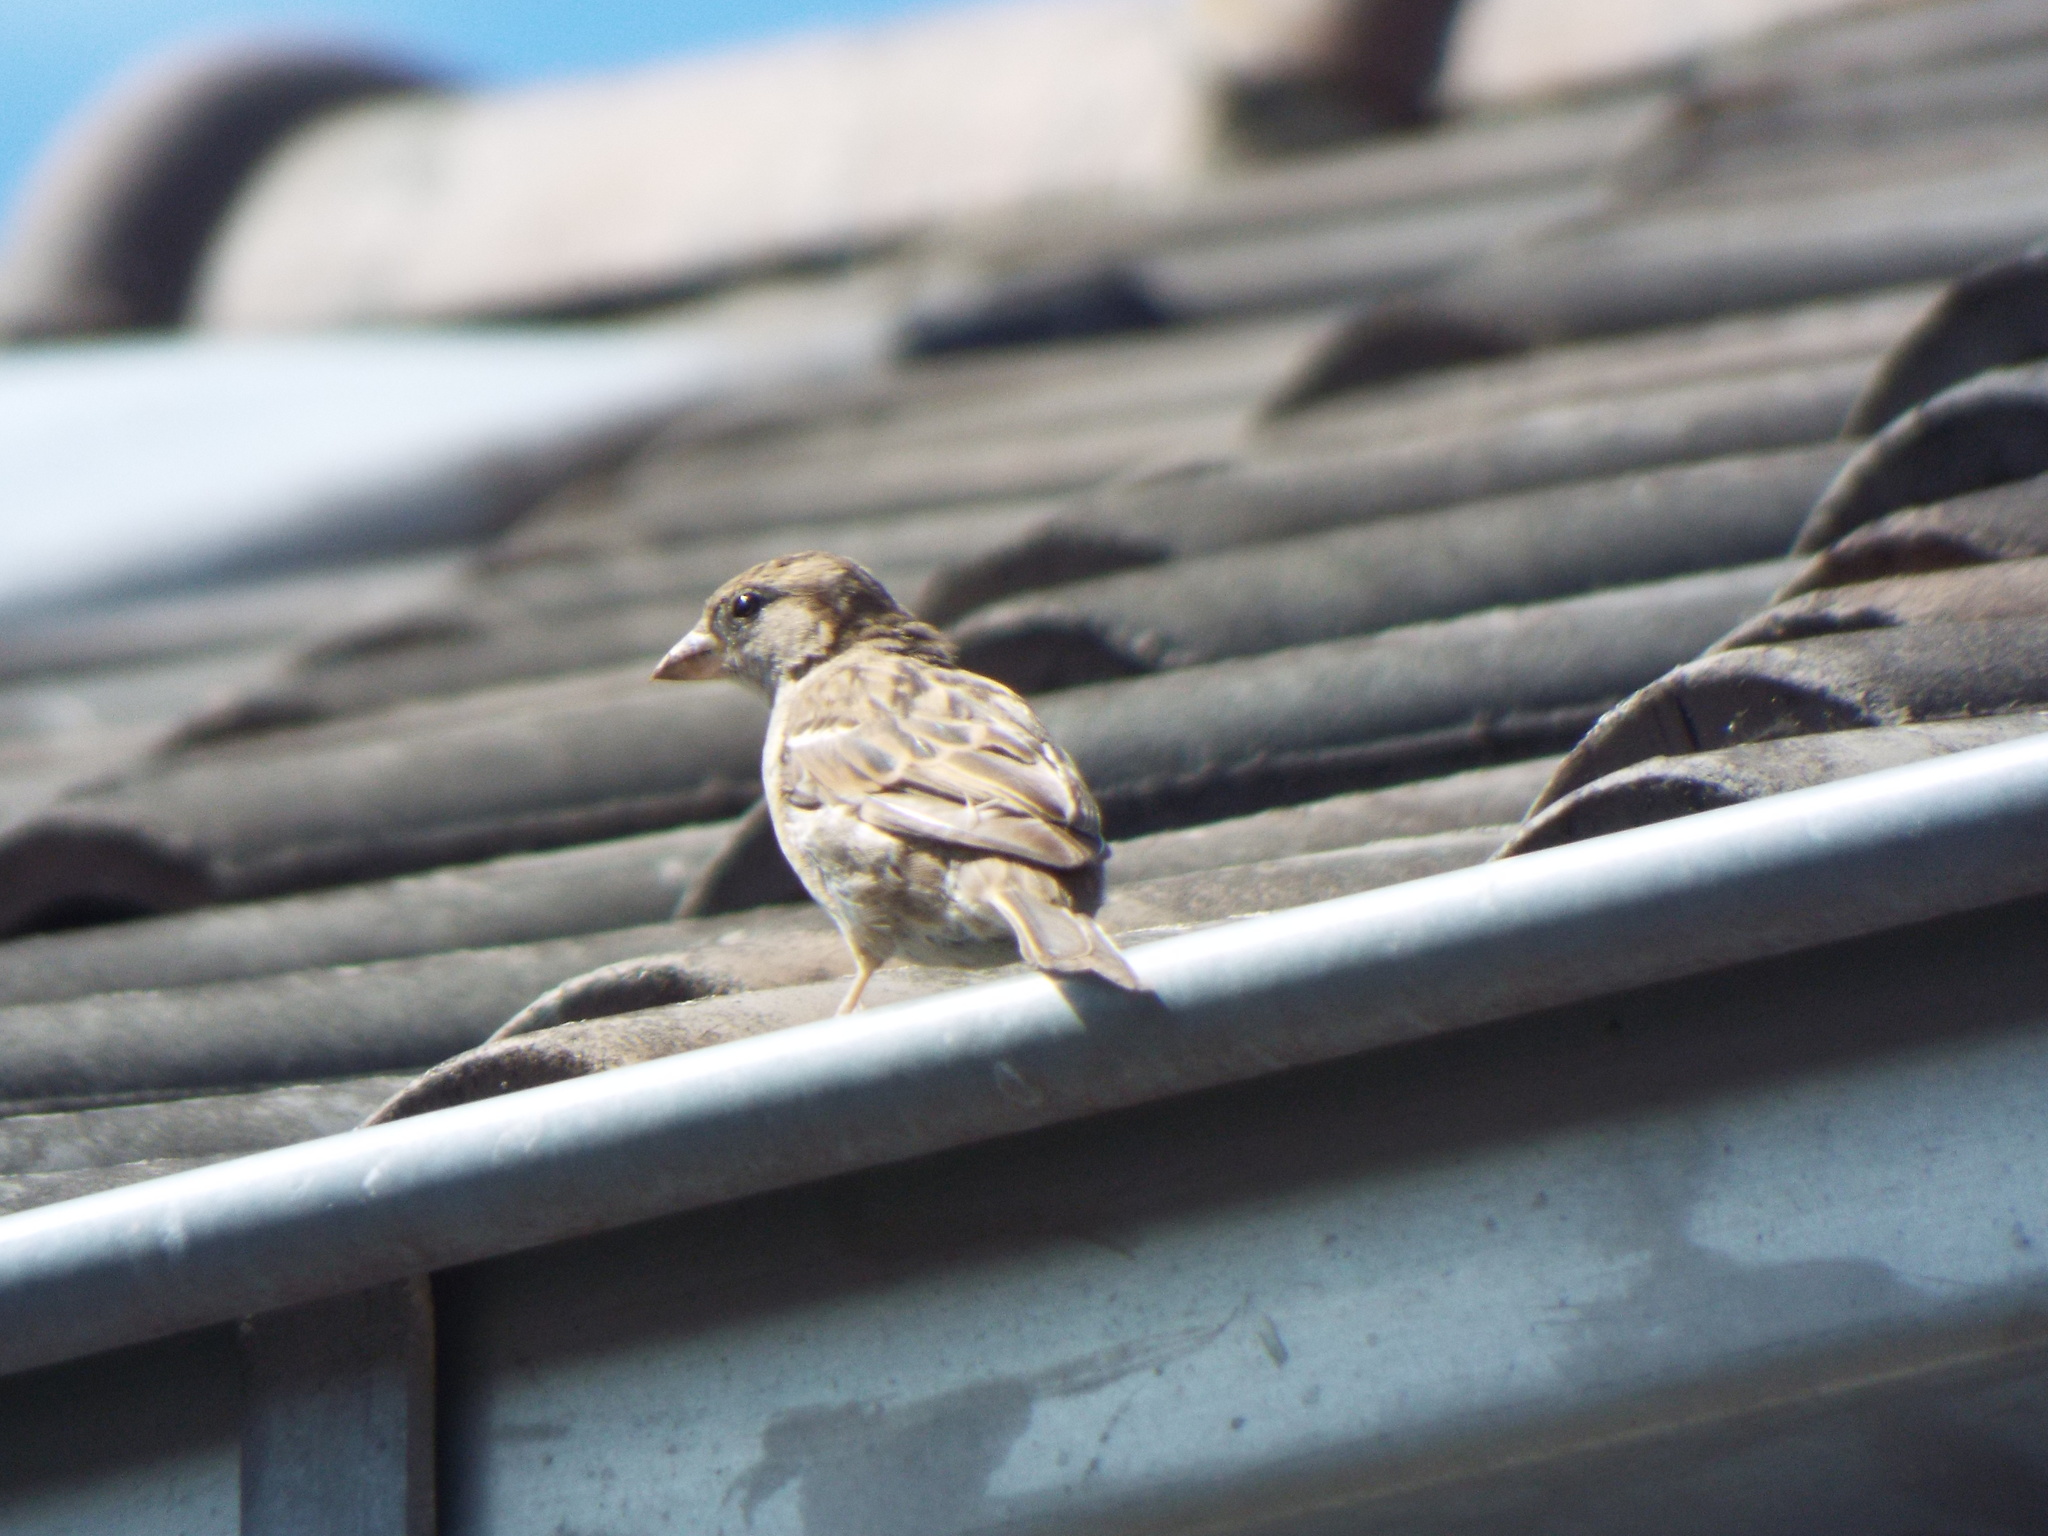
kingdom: Animalia
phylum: Chordata
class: Aves
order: Passeriformes
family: Passeridae
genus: Passer
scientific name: Passer domesticus
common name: House sparrow
